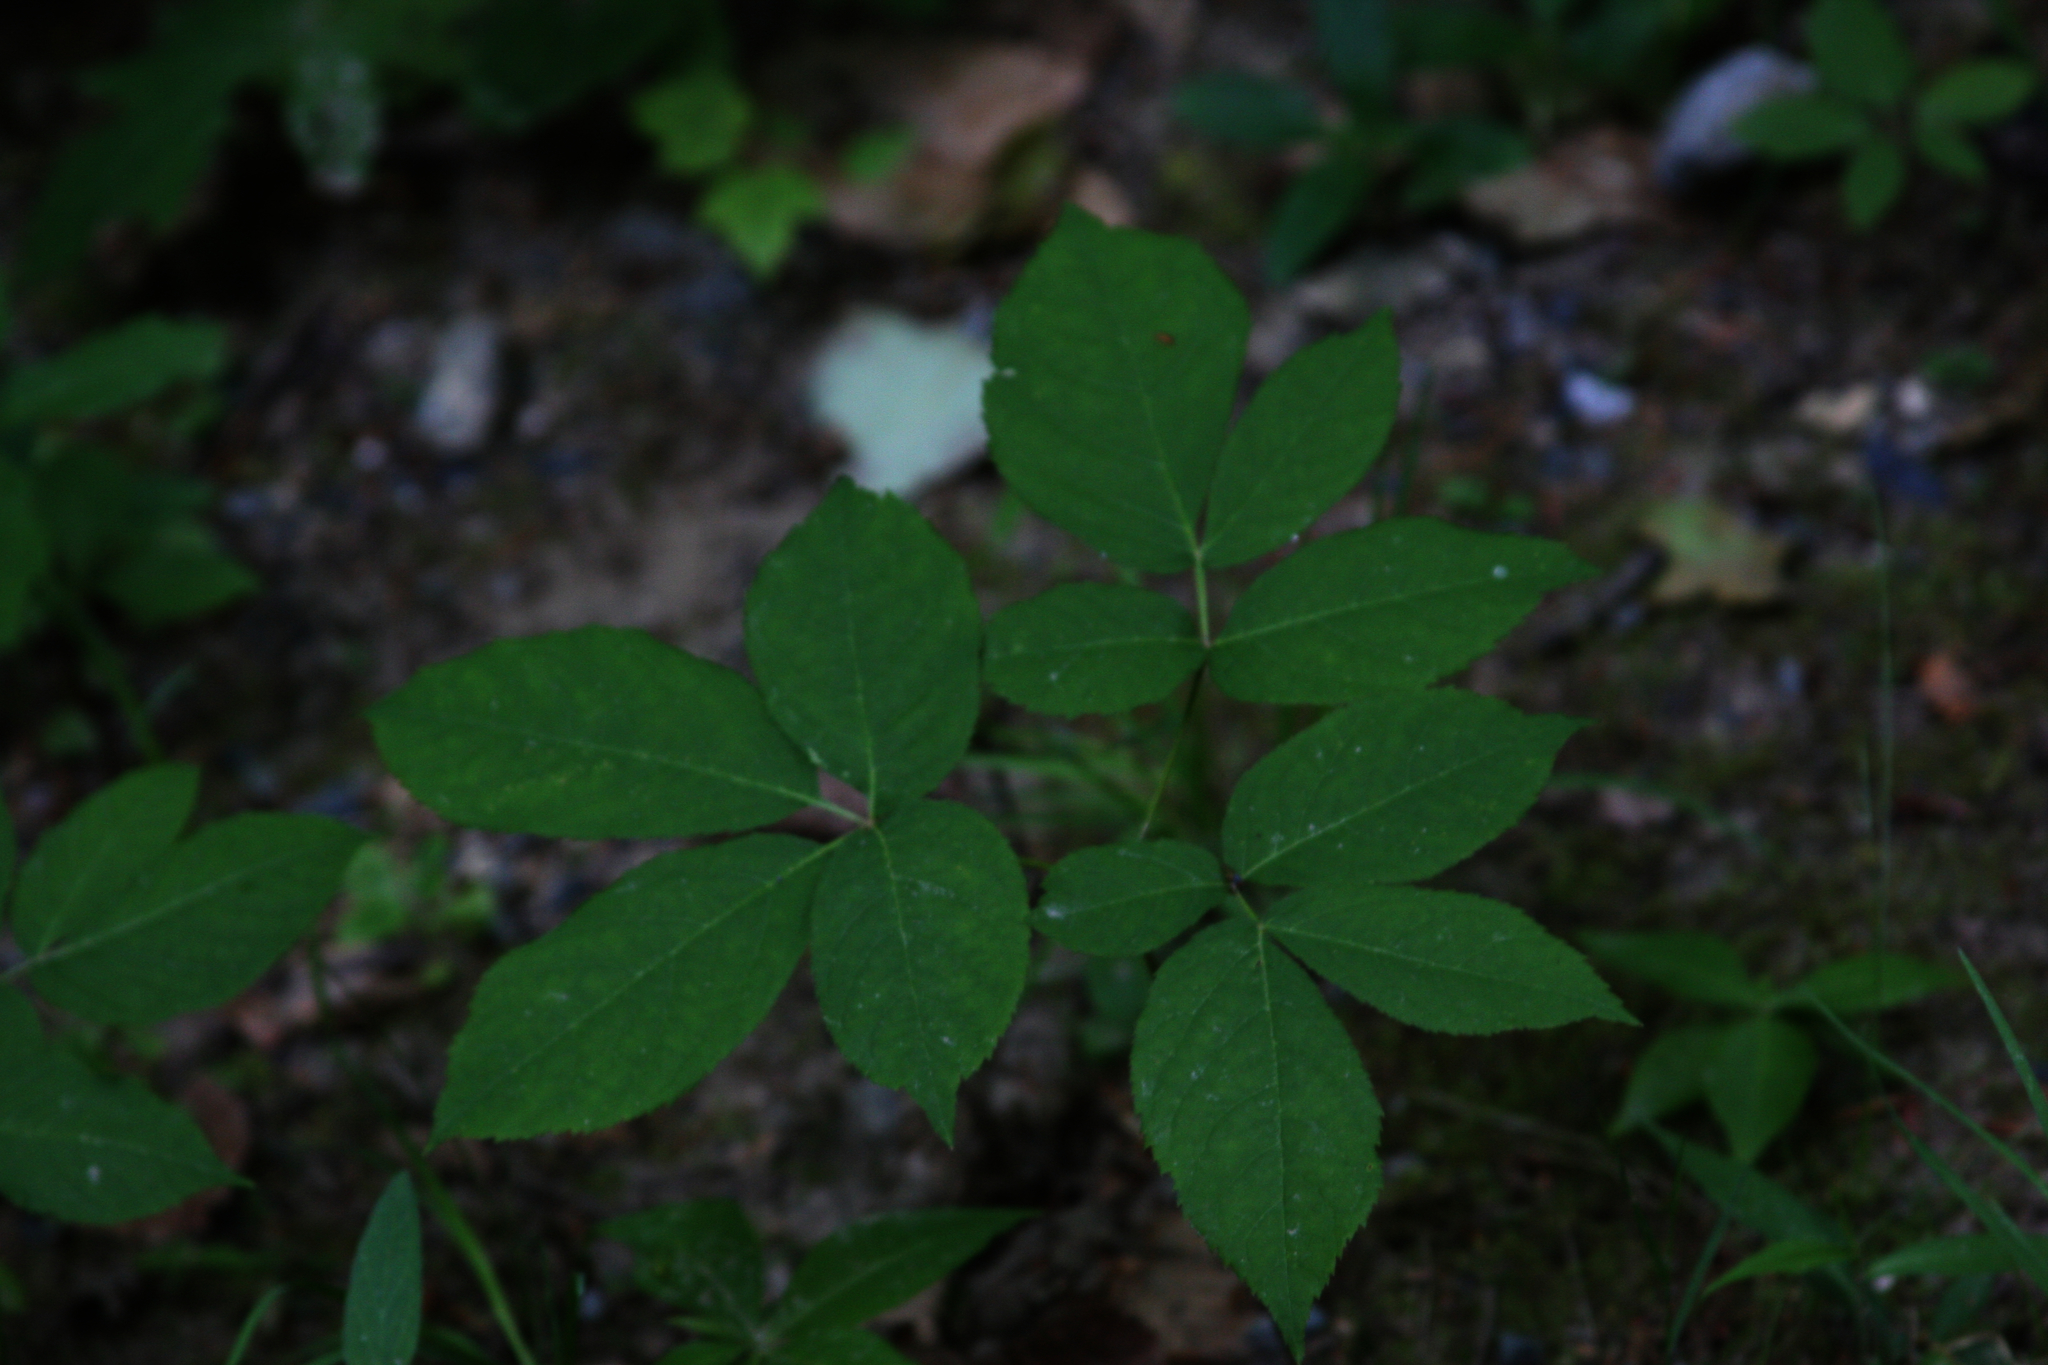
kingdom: Plantae
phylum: Tracheophyta
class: Magnoliopsida
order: Apiales
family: Araliaceae
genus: Aralia
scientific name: Aralia nudicaulis
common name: Wild sarsaparilla
